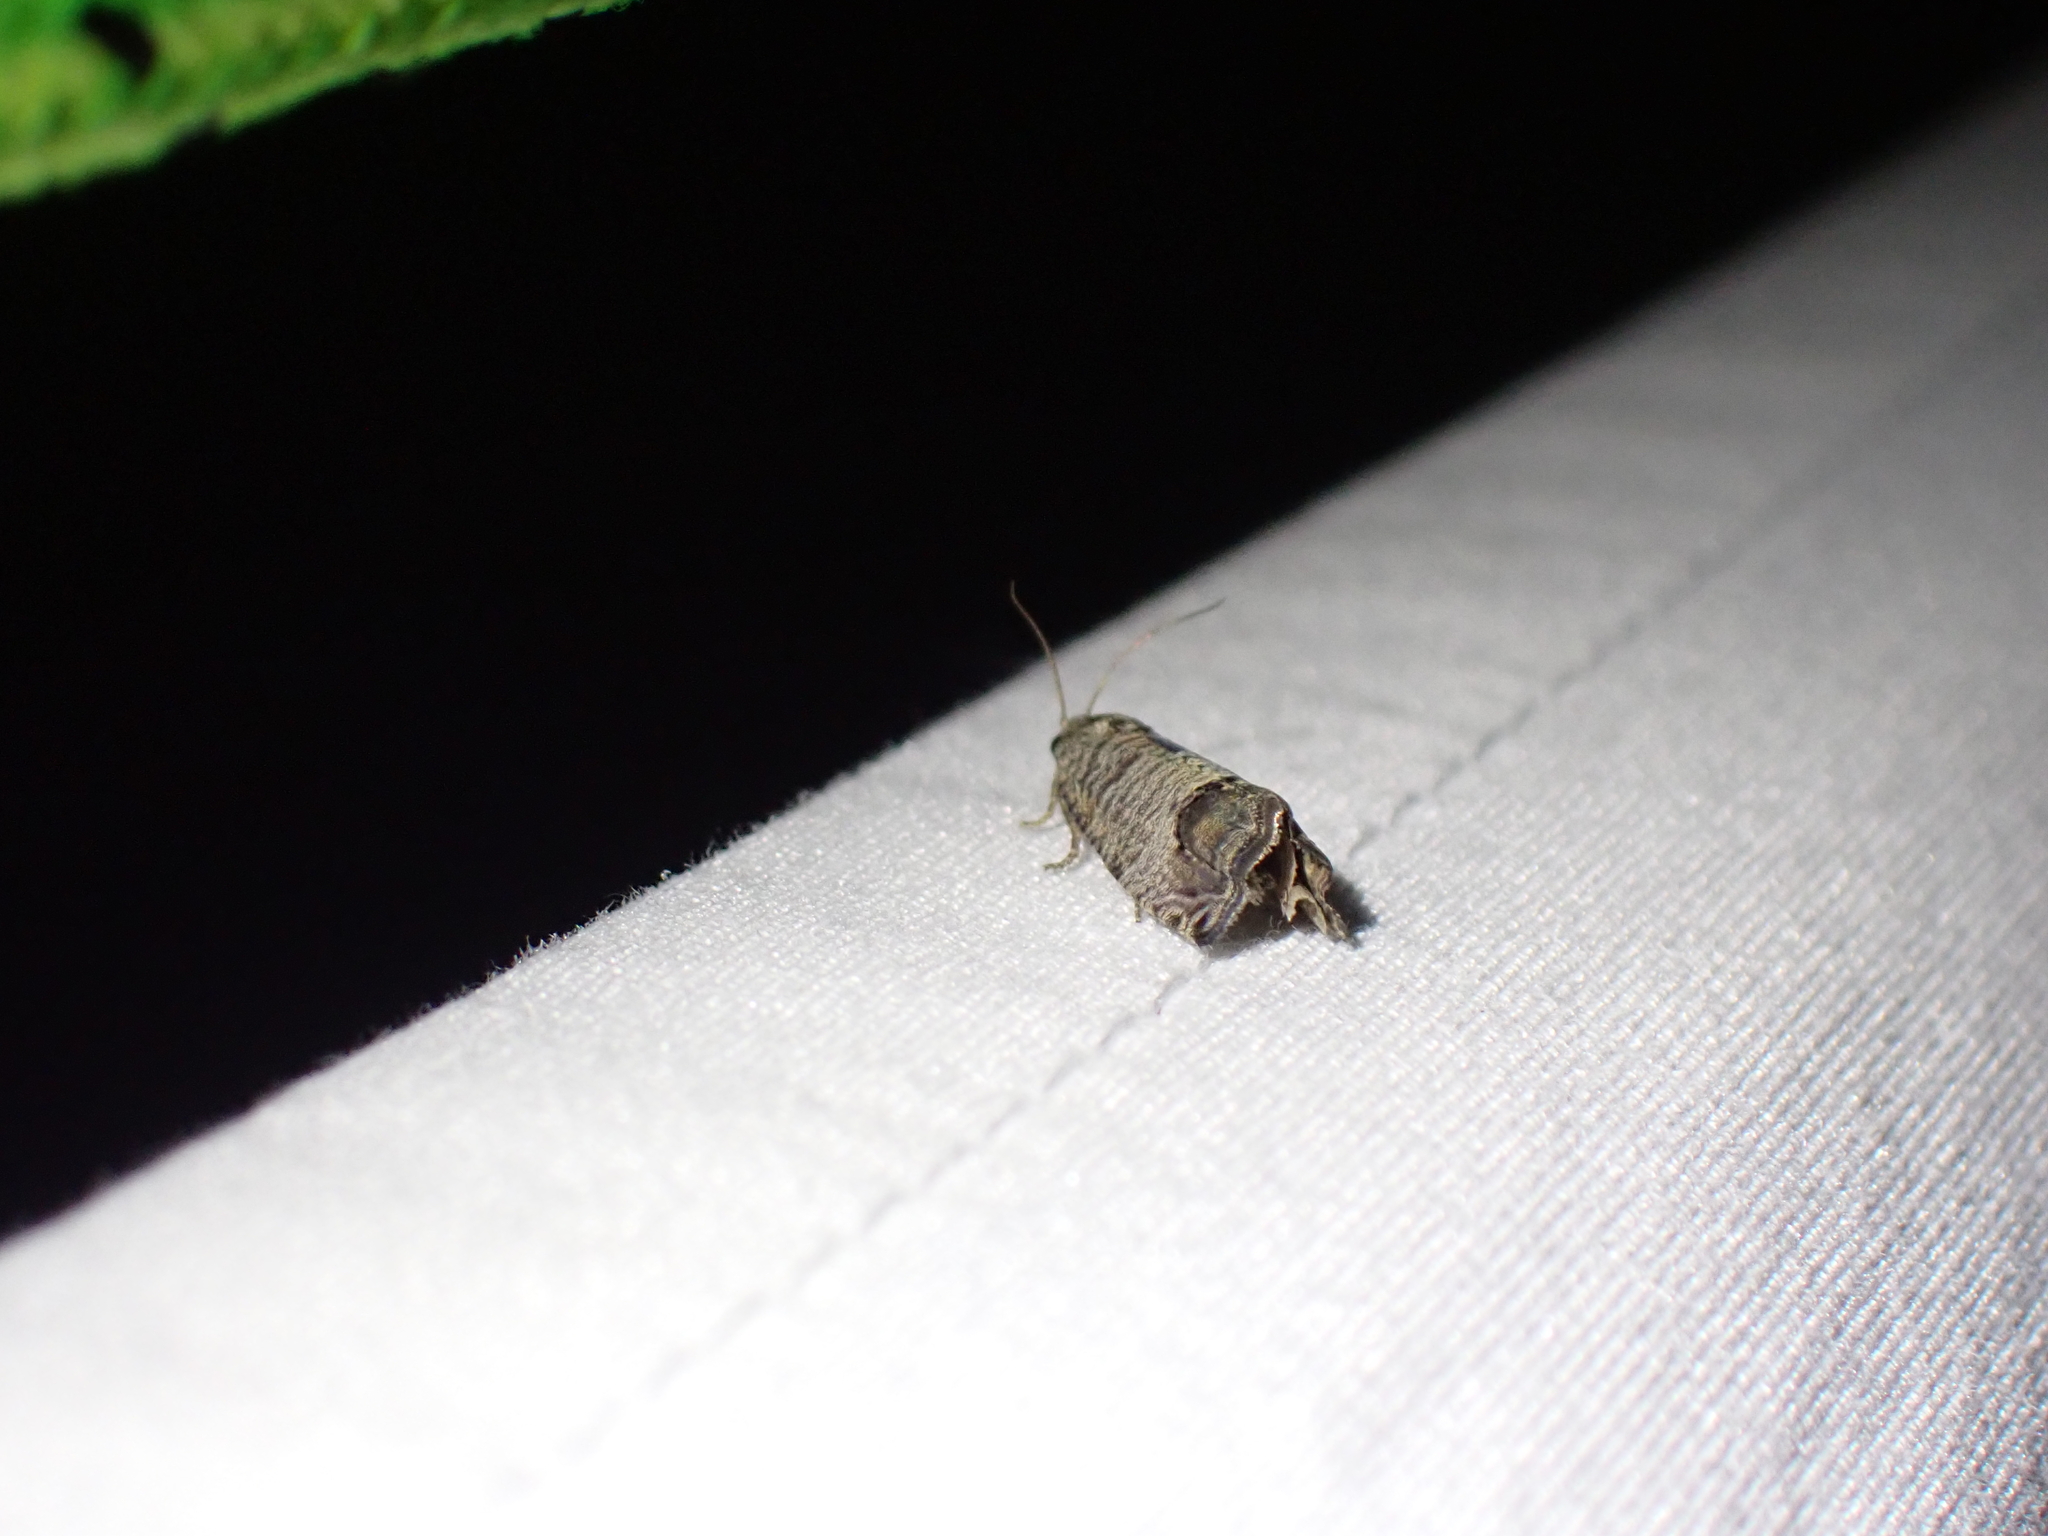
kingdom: Animalia
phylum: Arthropoda
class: Insecta
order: Lepidoptera
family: Tortricidae
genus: Cydia
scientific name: Cydia pomonella
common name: Codling moth
